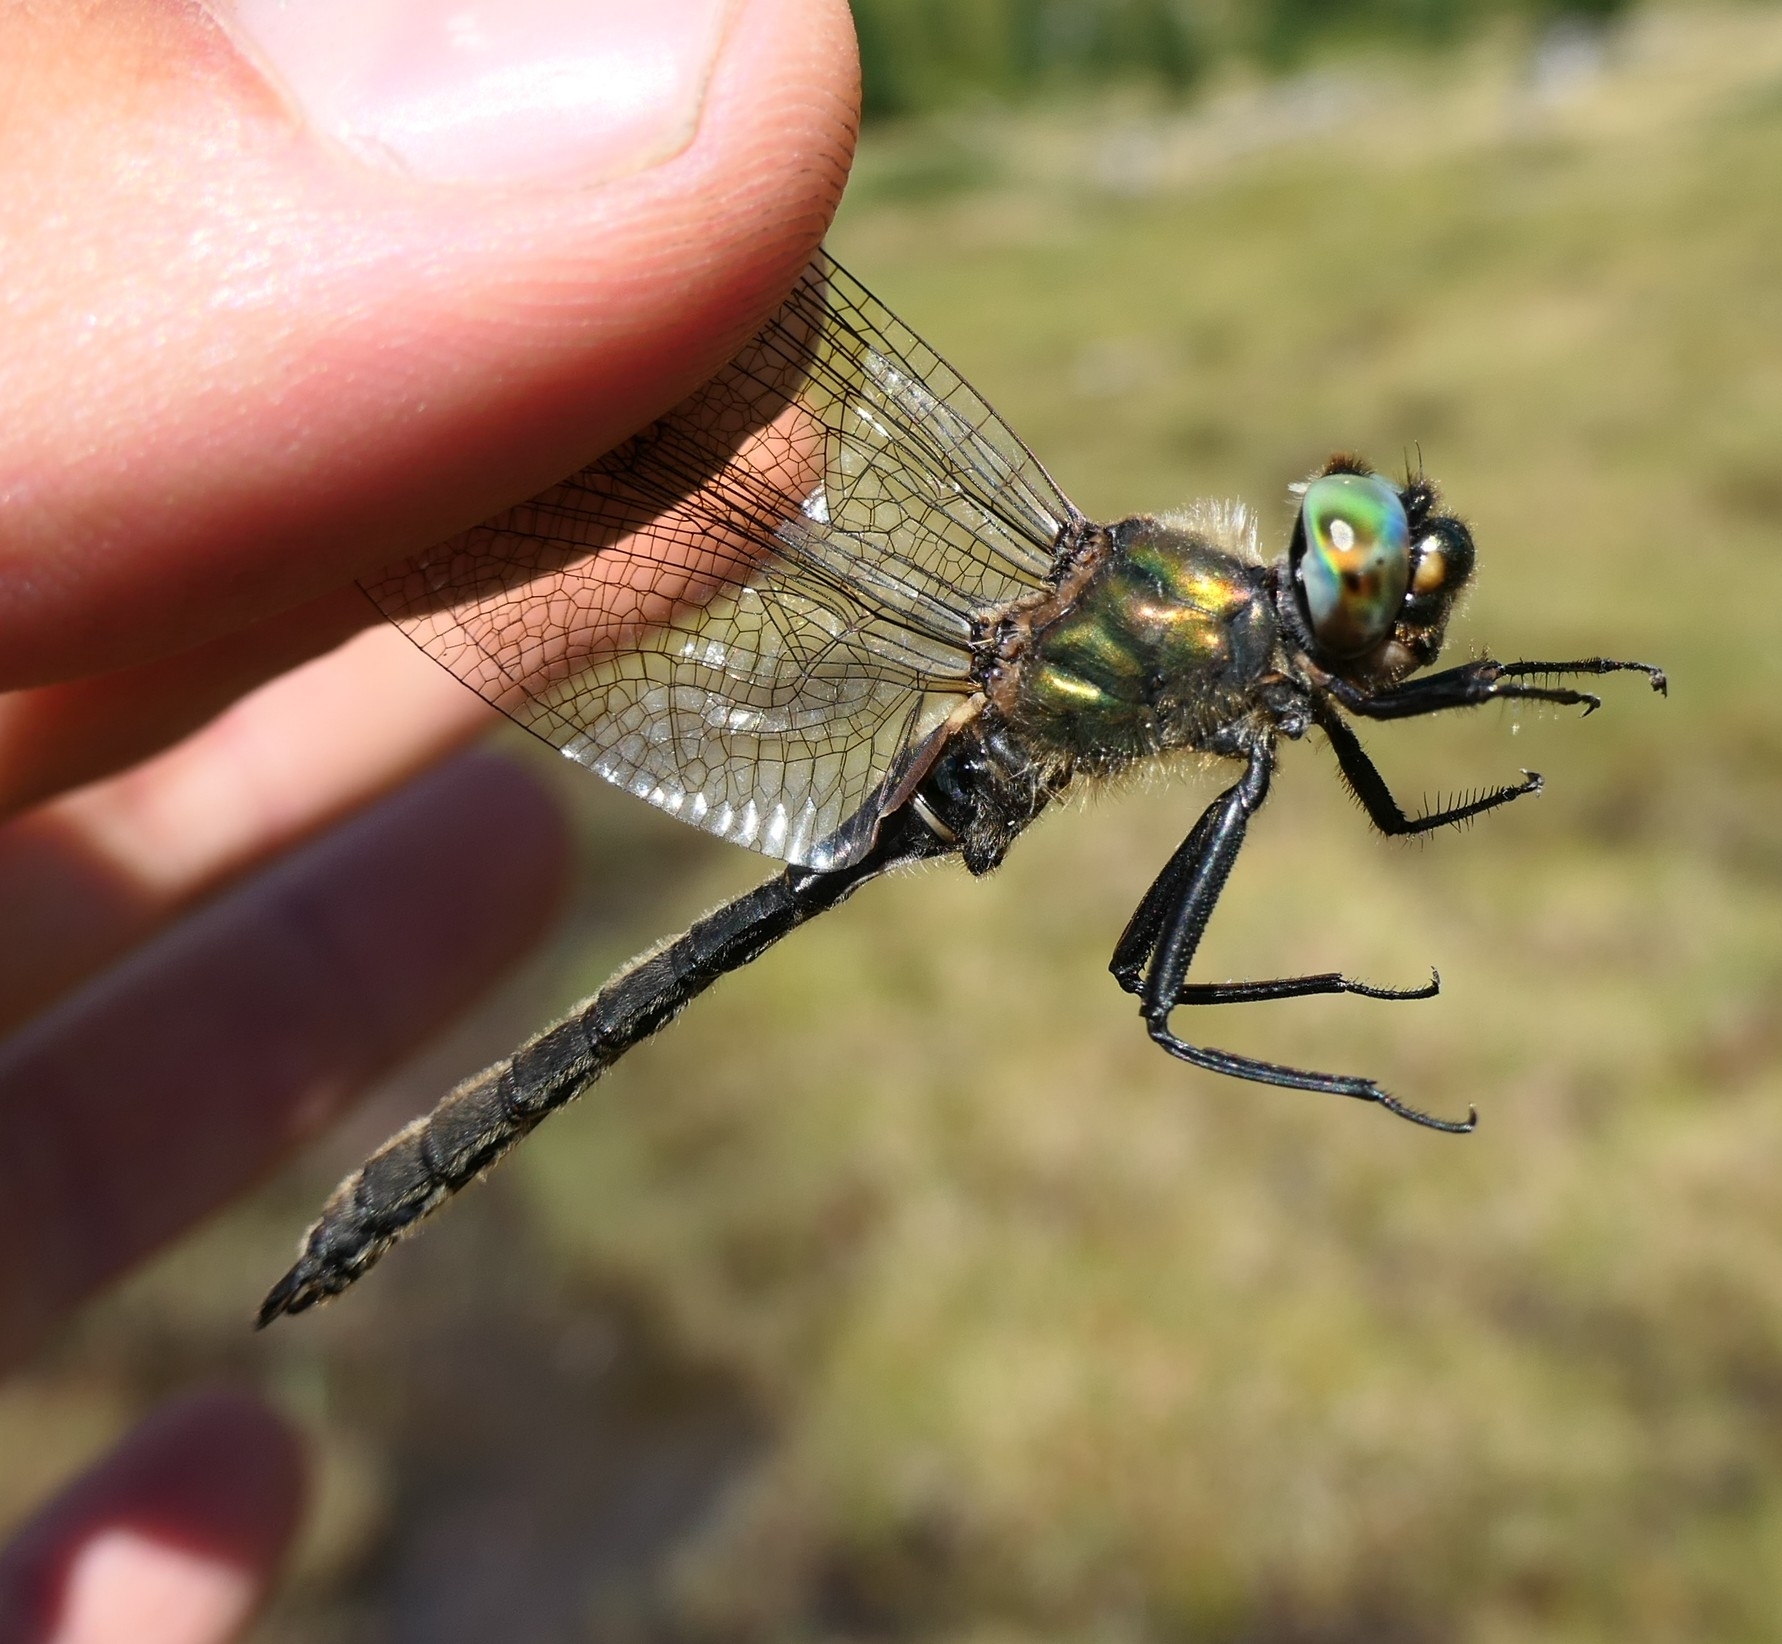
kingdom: Animalia
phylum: Arthropoda
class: Insecta
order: Odonata
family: Corduliidae
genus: Somatochlora
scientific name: Somatochlora alpestris
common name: Alpine emerald
